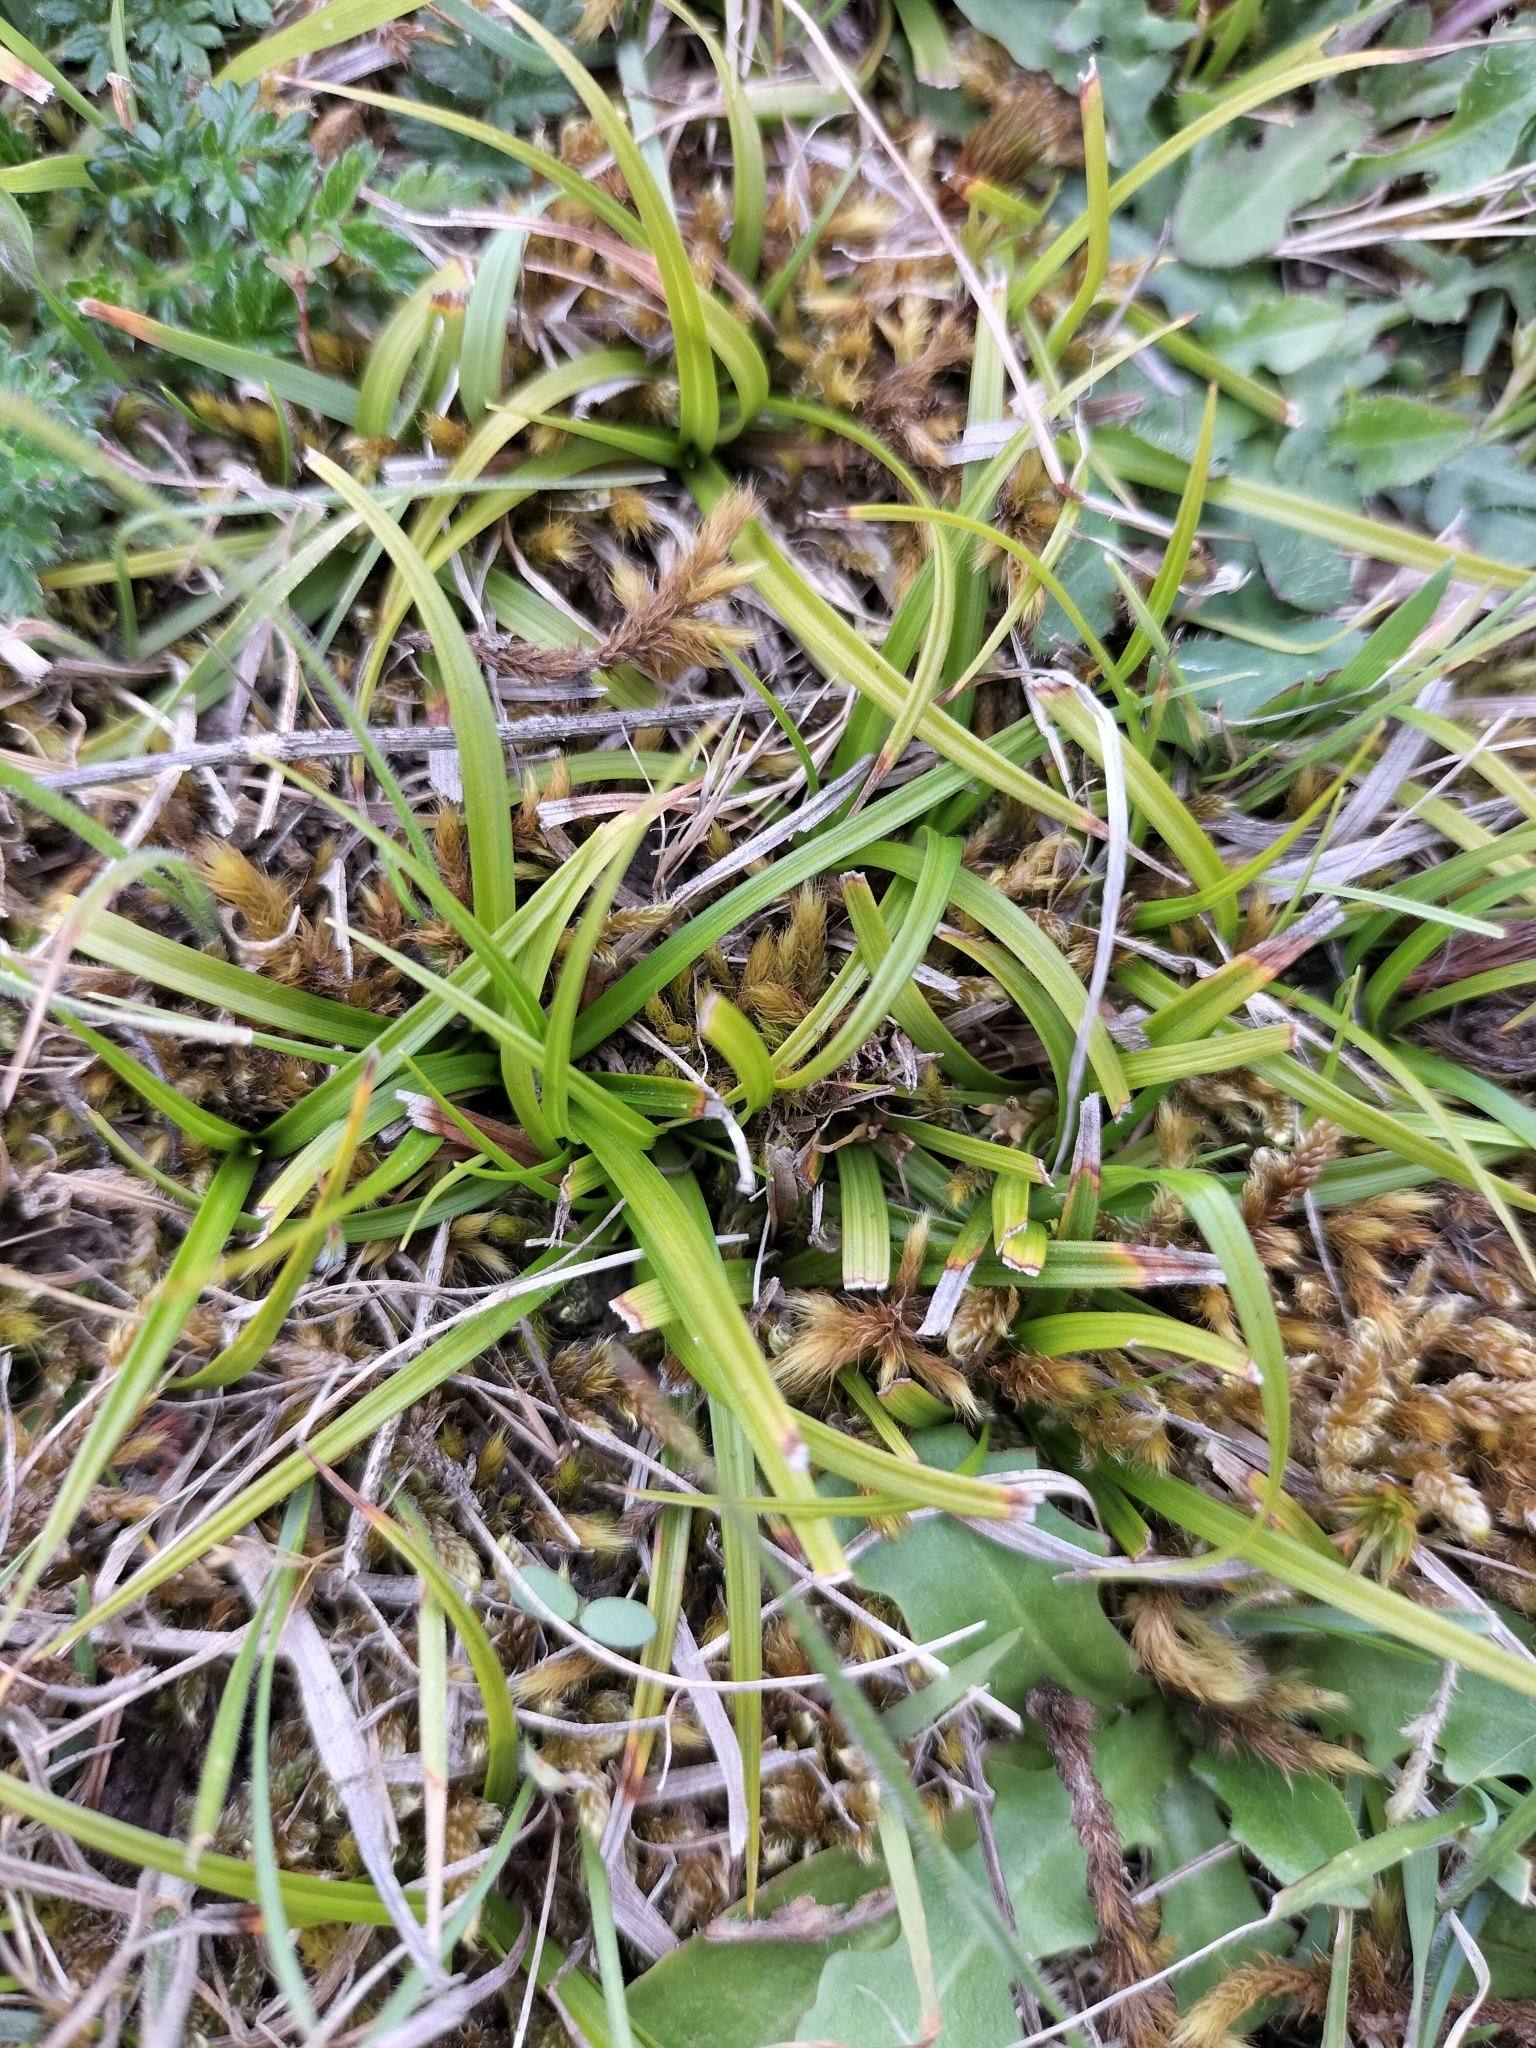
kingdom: Plantae
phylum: Tracheophyta
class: Liliopsida
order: Poales
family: Cyperaceae
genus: Carex
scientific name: Carex breviculmis
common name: Asian shortstem sedge
